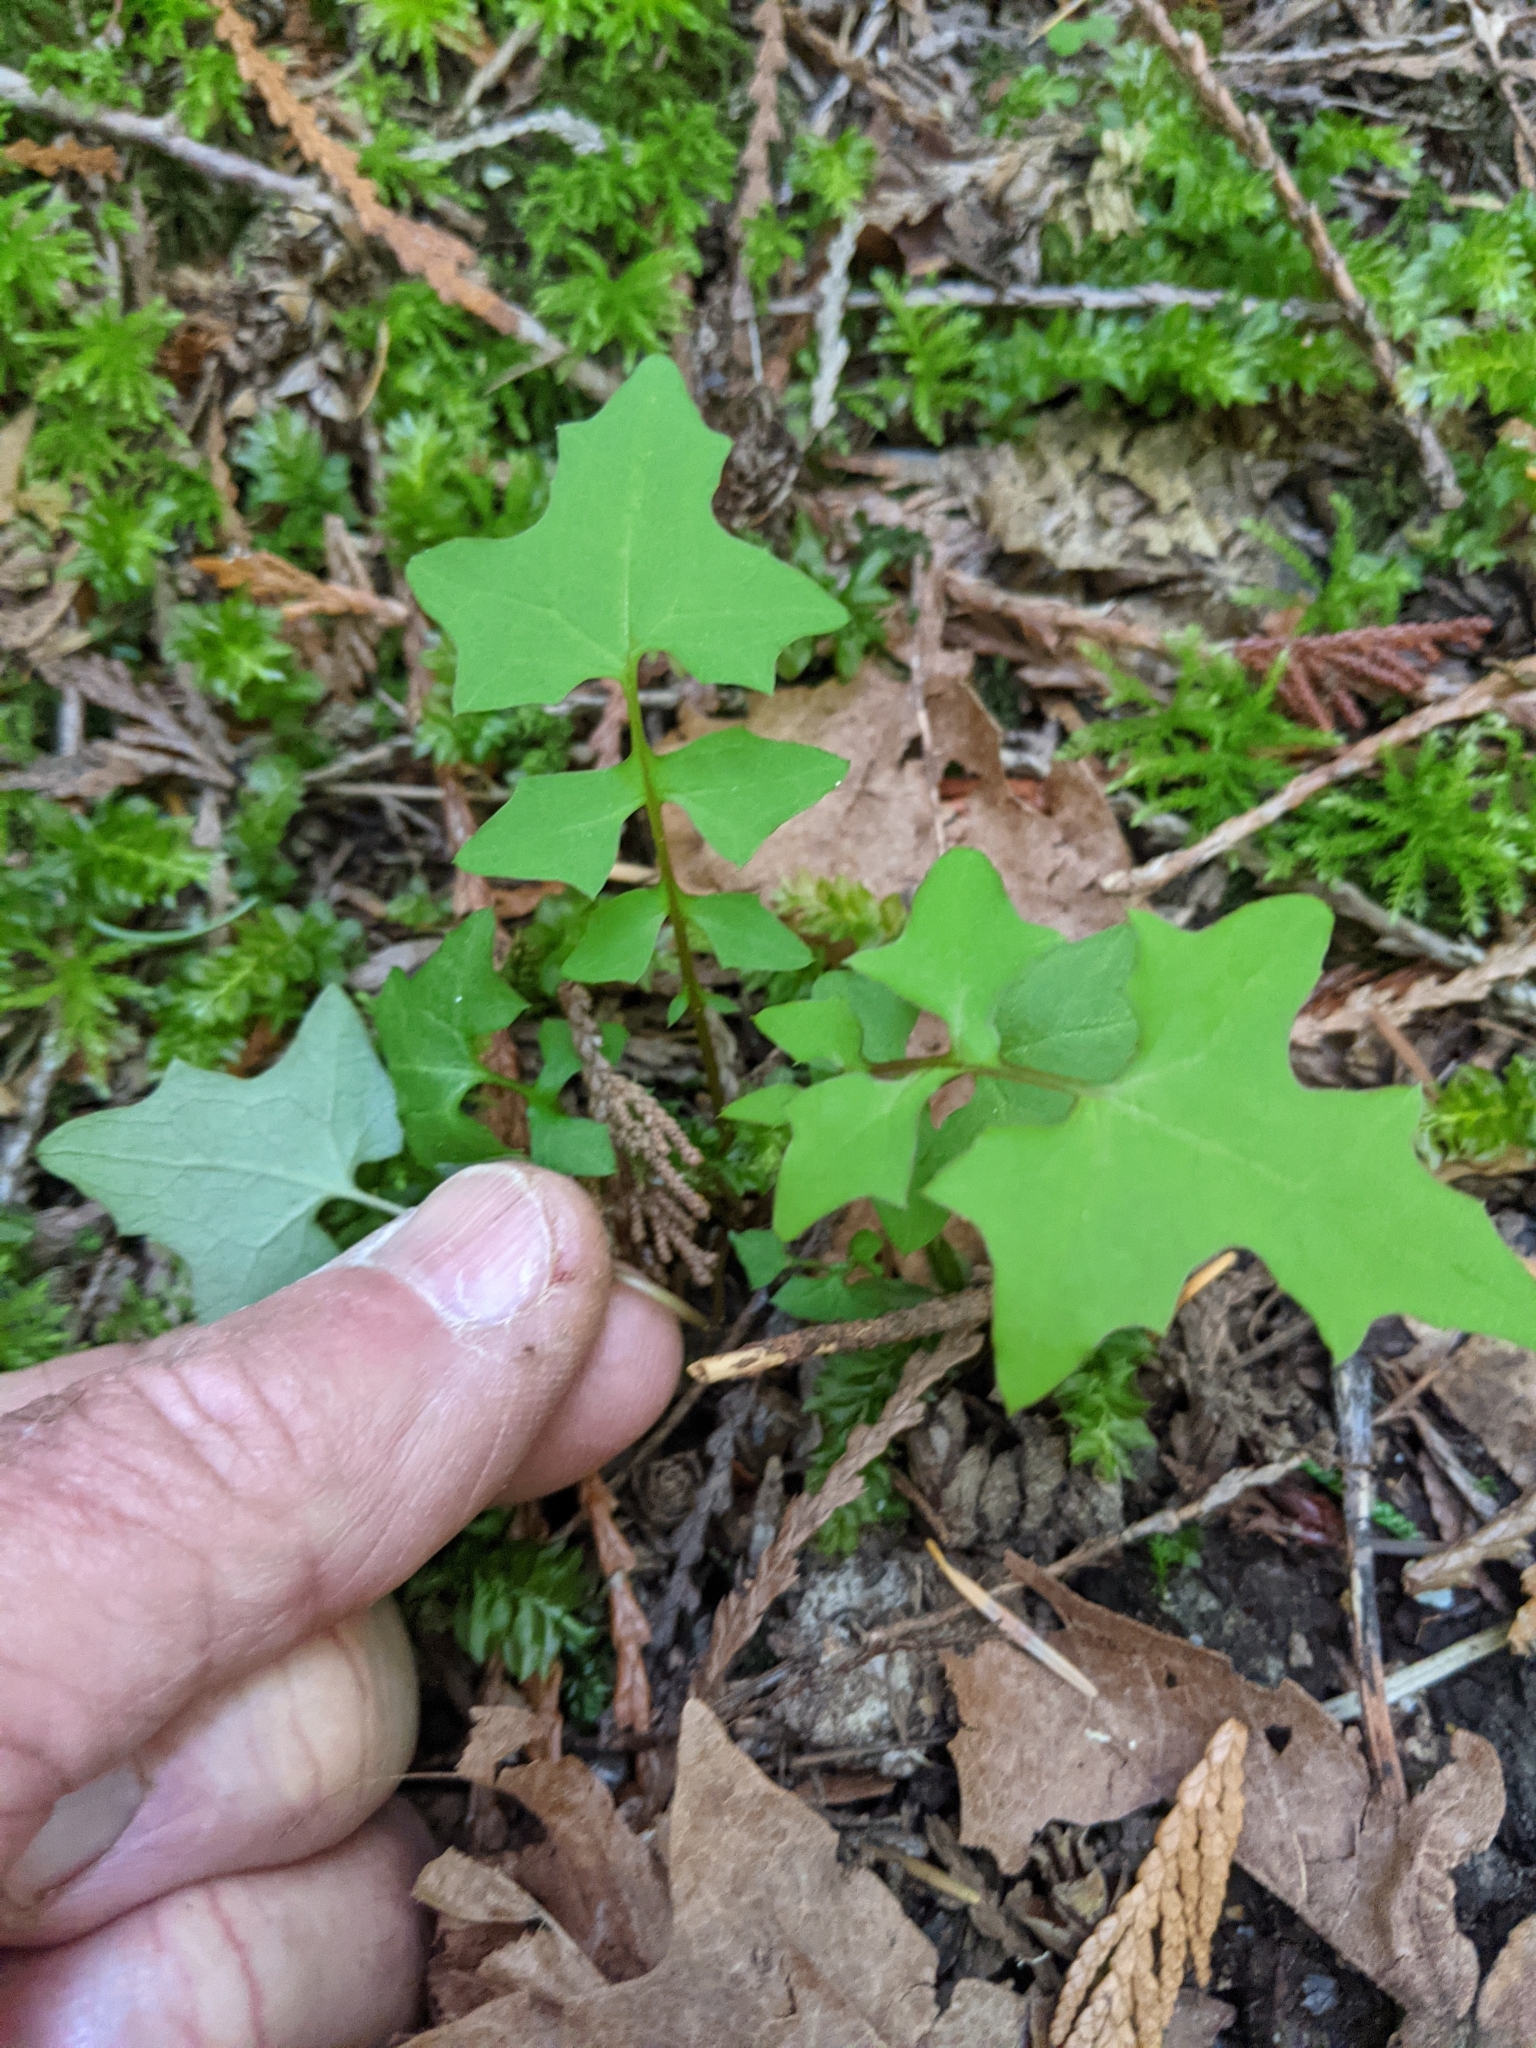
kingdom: Plantae
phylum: Tracheophyta
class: Magnoliopsida
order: Asterales
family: Asteraceae
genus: Mycelis
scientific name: Mycelis muralis
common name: Wall lettuce
